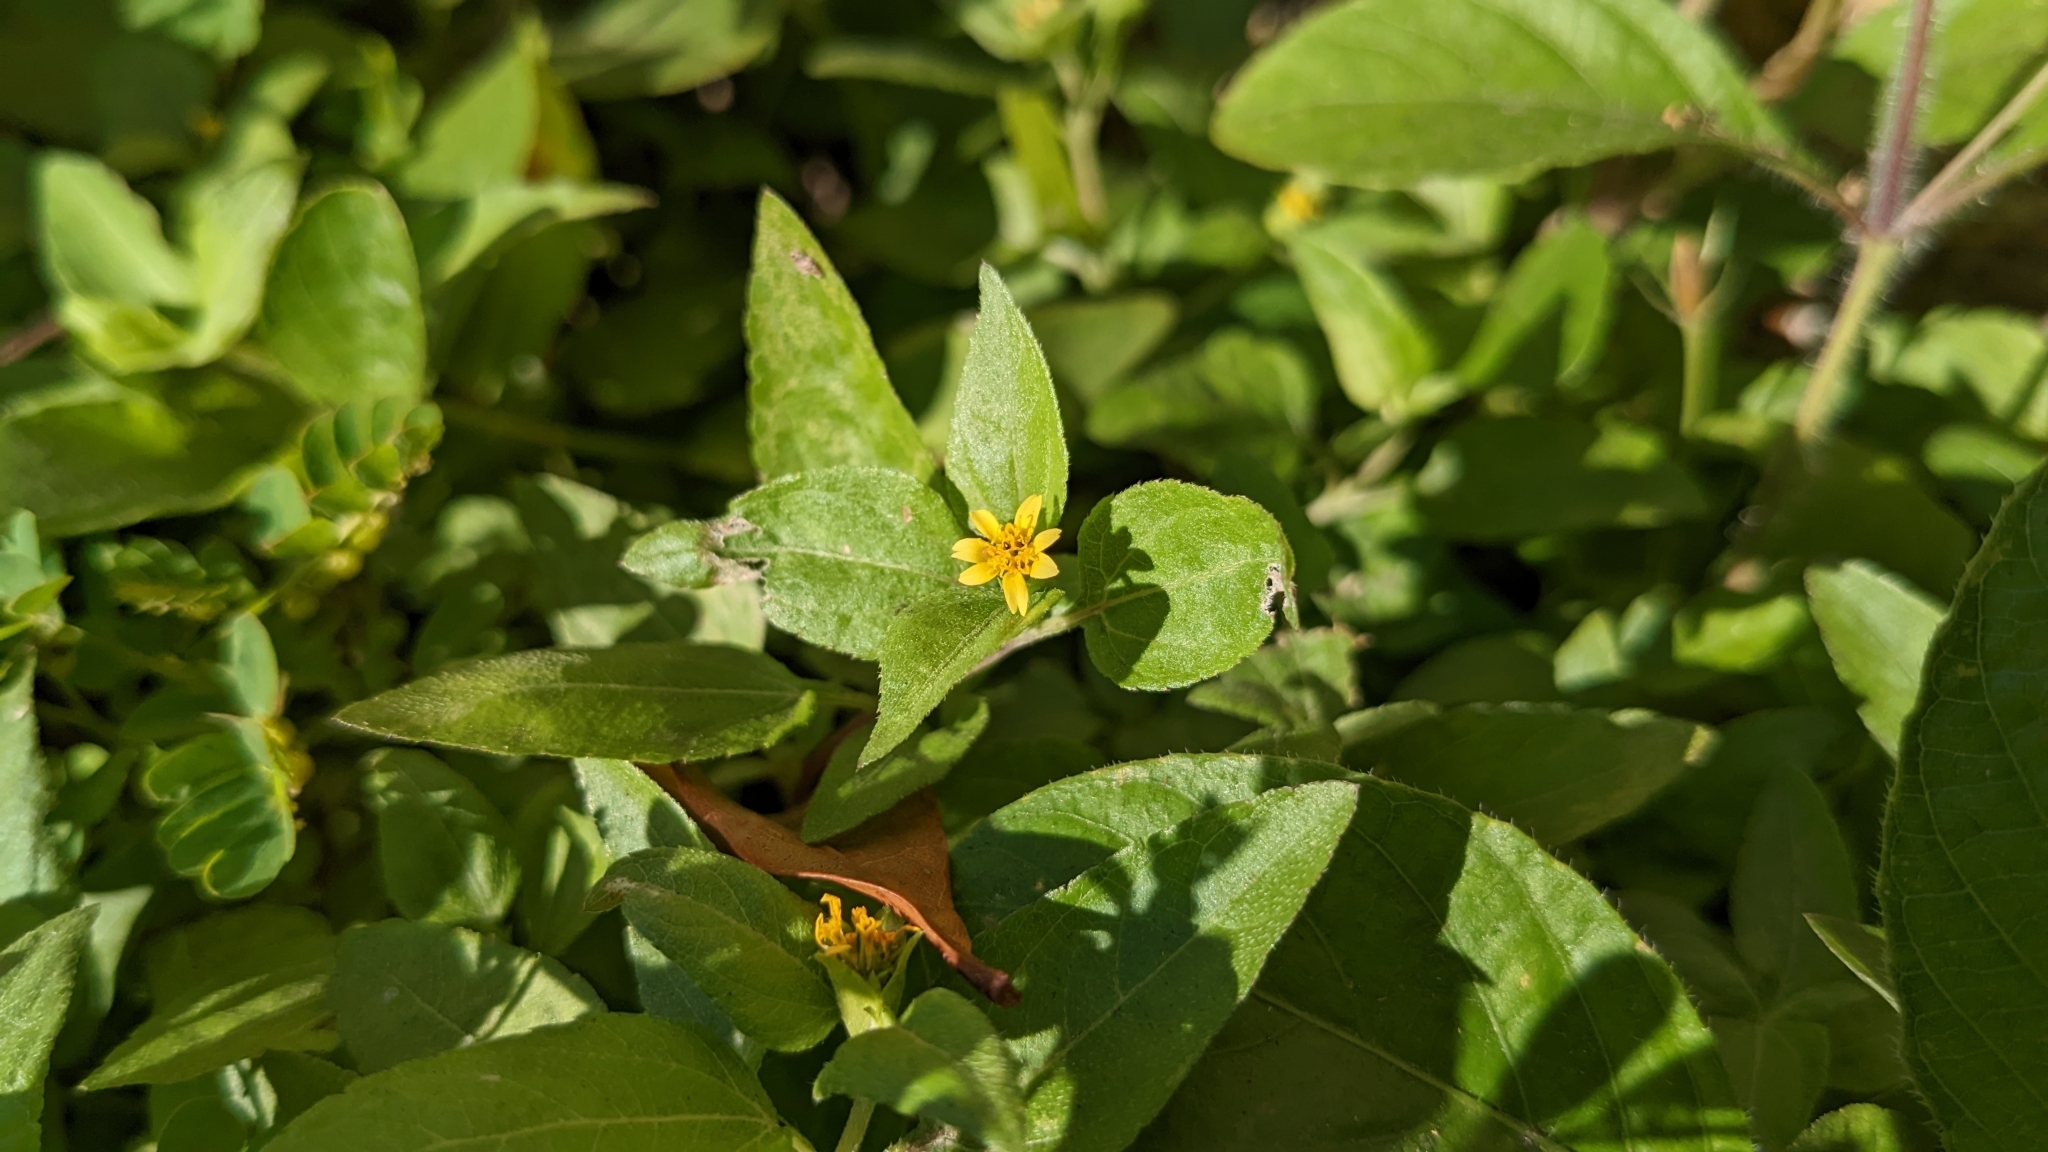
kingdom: Plantae
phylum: Tracheophyta
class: Magnoliopsida
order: Asterales
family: Asteraceae
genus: Calyptocarpus
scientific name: Calyptocarpus vialis
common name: Straggler daisy
